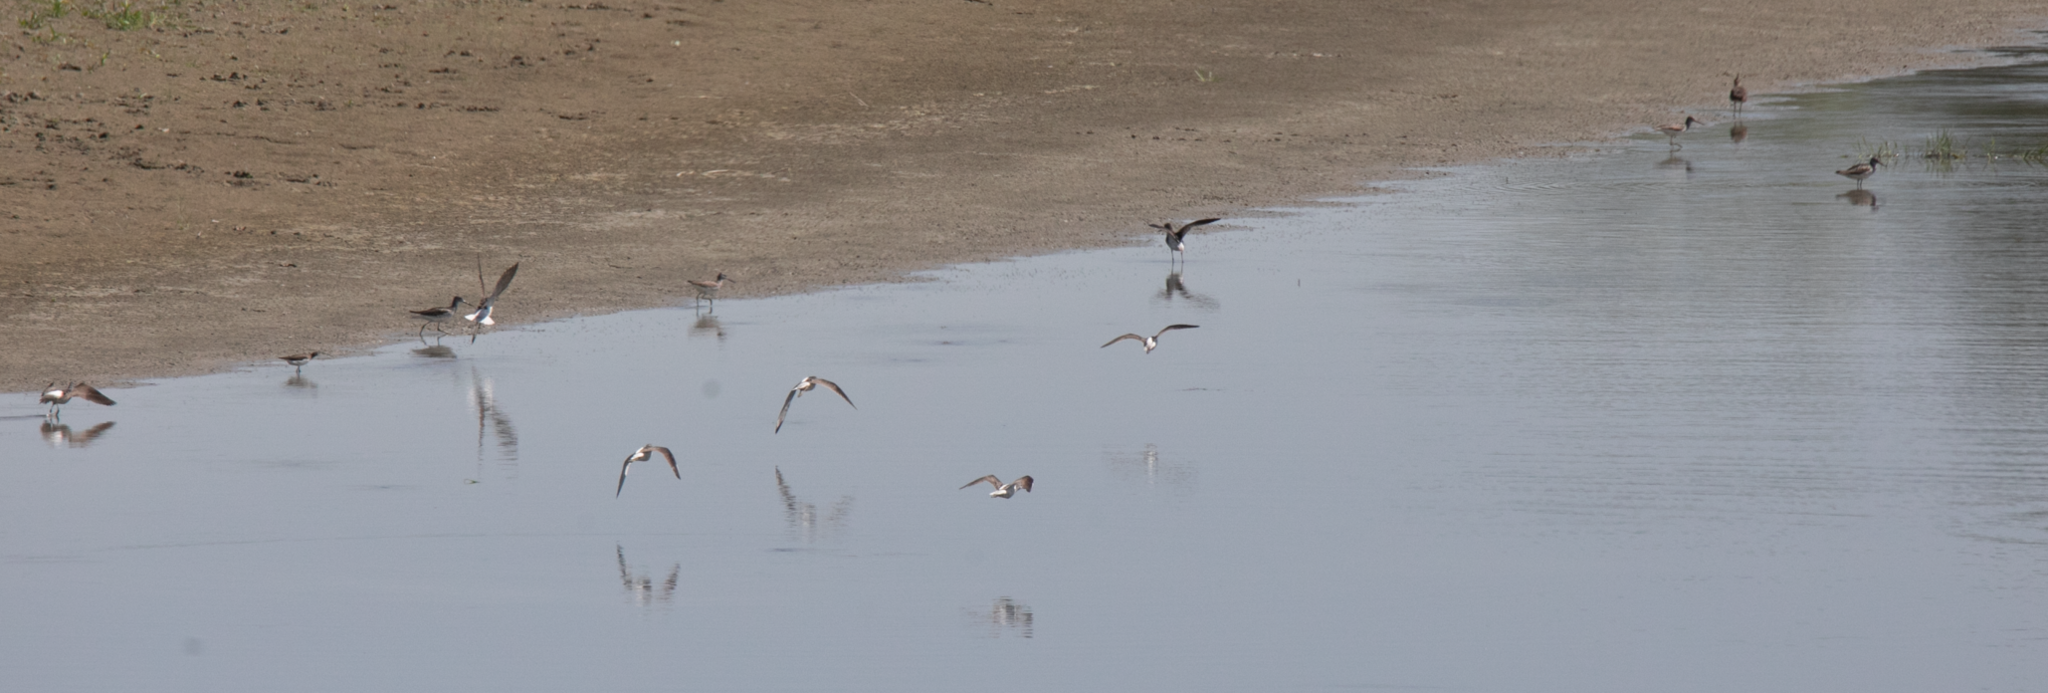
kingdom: Animalia
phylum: Chordata
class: Aves
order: Charadriiformes
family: Scolopacidae
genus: Tringa
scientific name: Tringa nebularia
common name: Common greenshank
